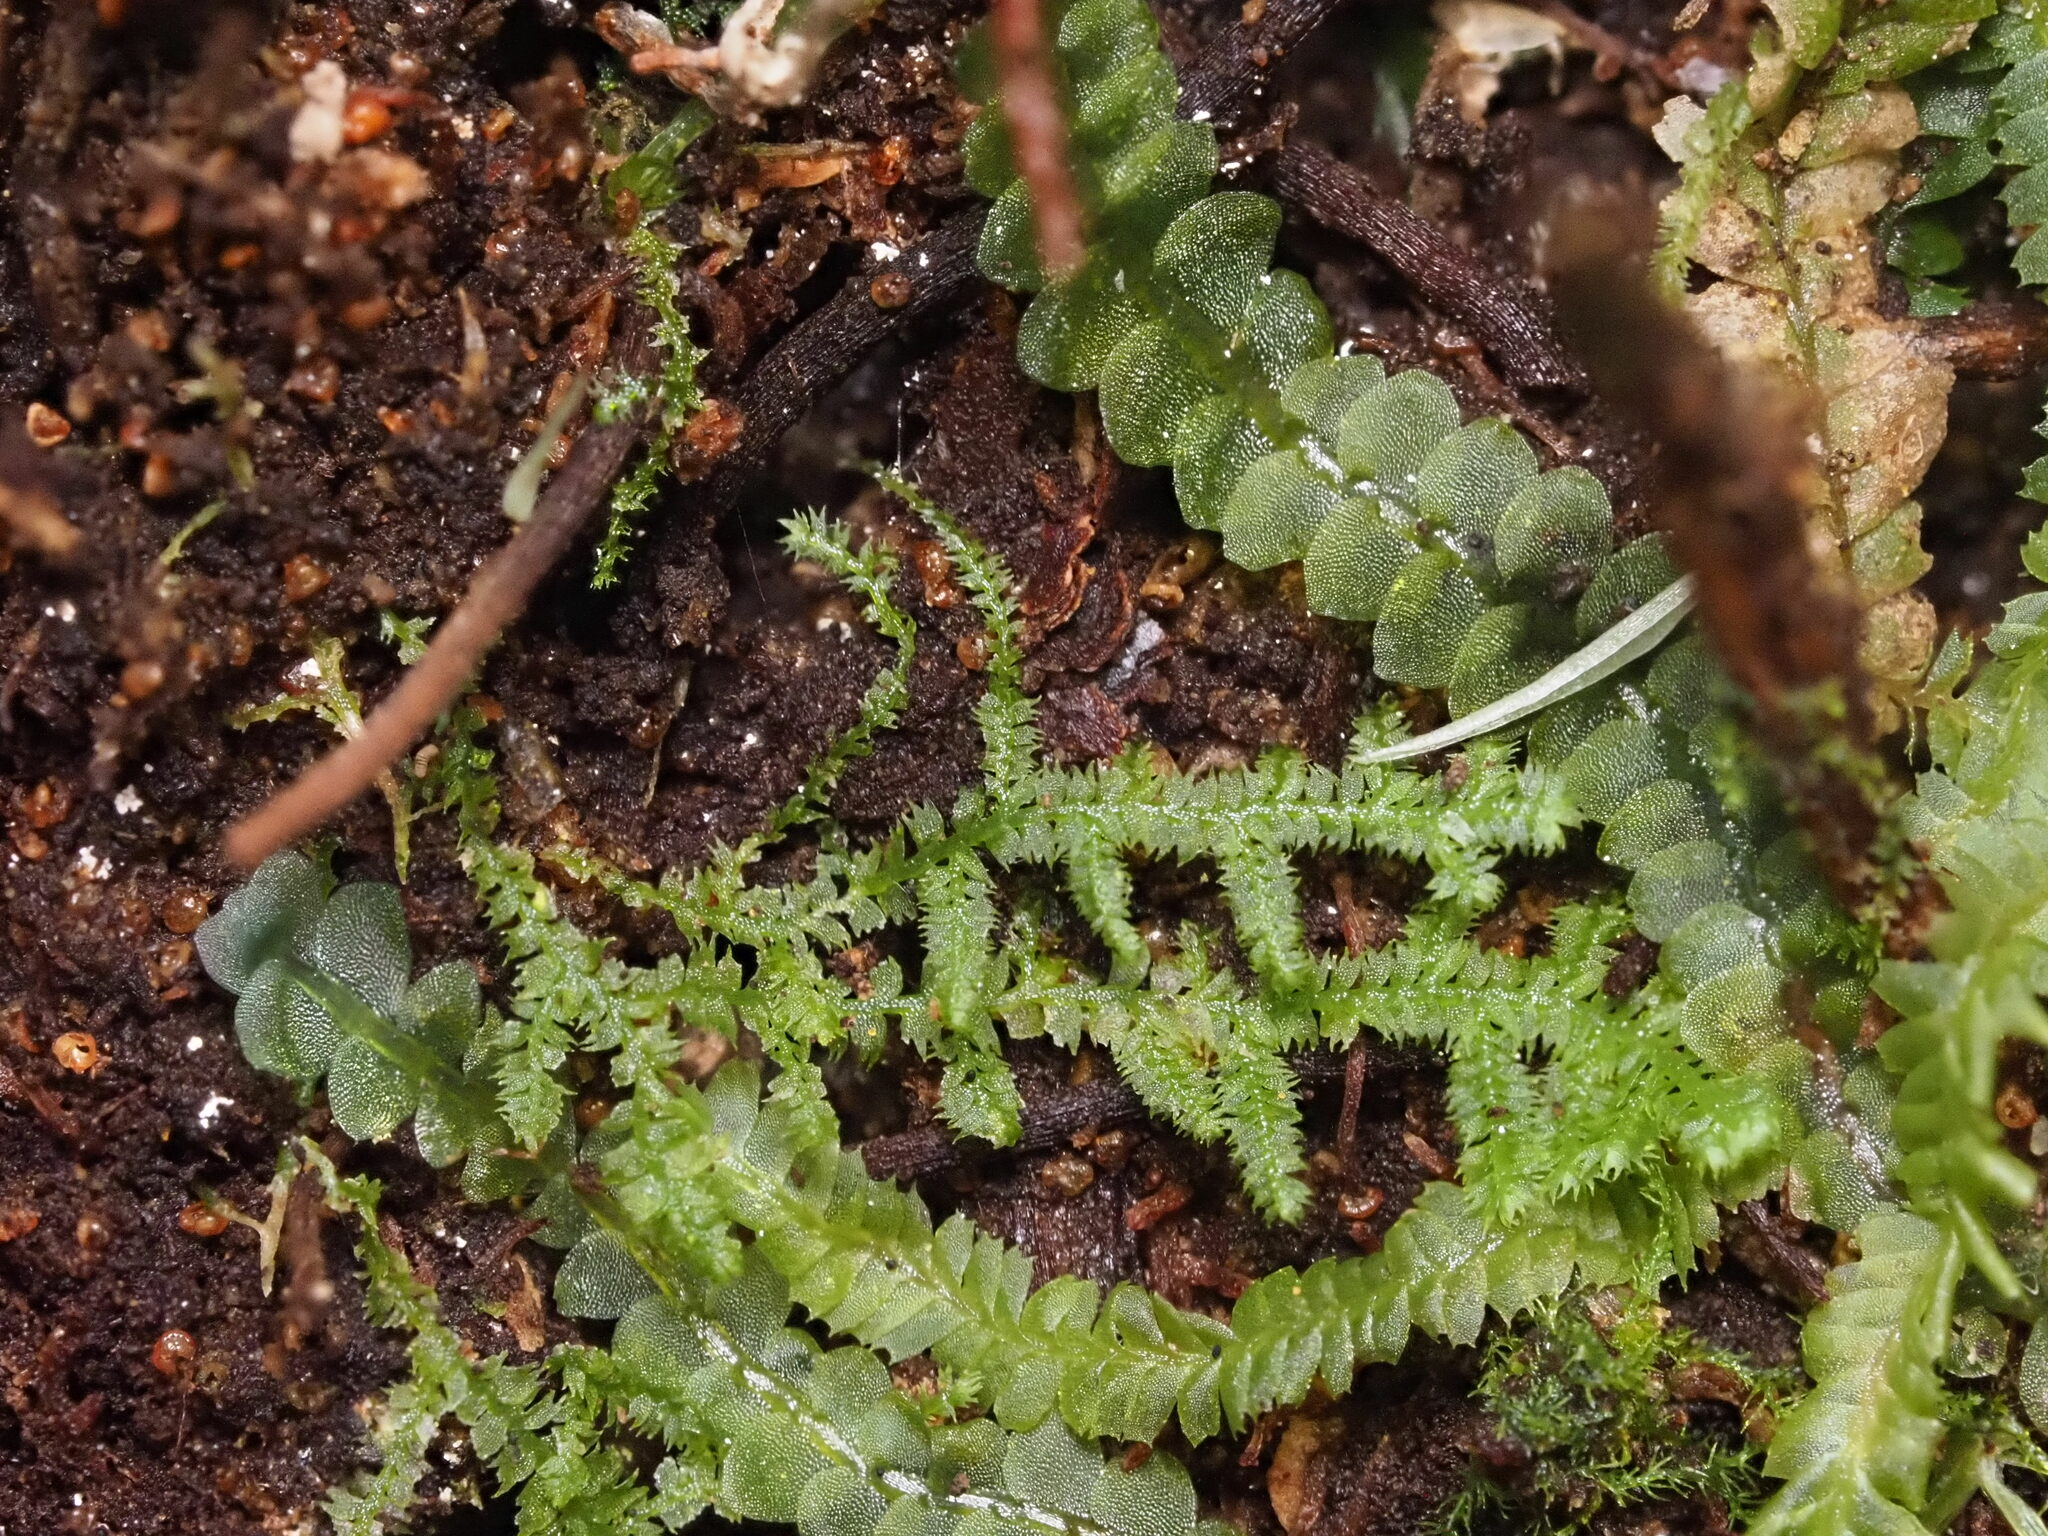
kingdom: Plantae
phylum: Marchantiophyta
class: Jungermanniopsida
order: Jungermanniales
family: Lepidoziaceae
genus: Lepidozia
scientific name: Lepidozia australis
